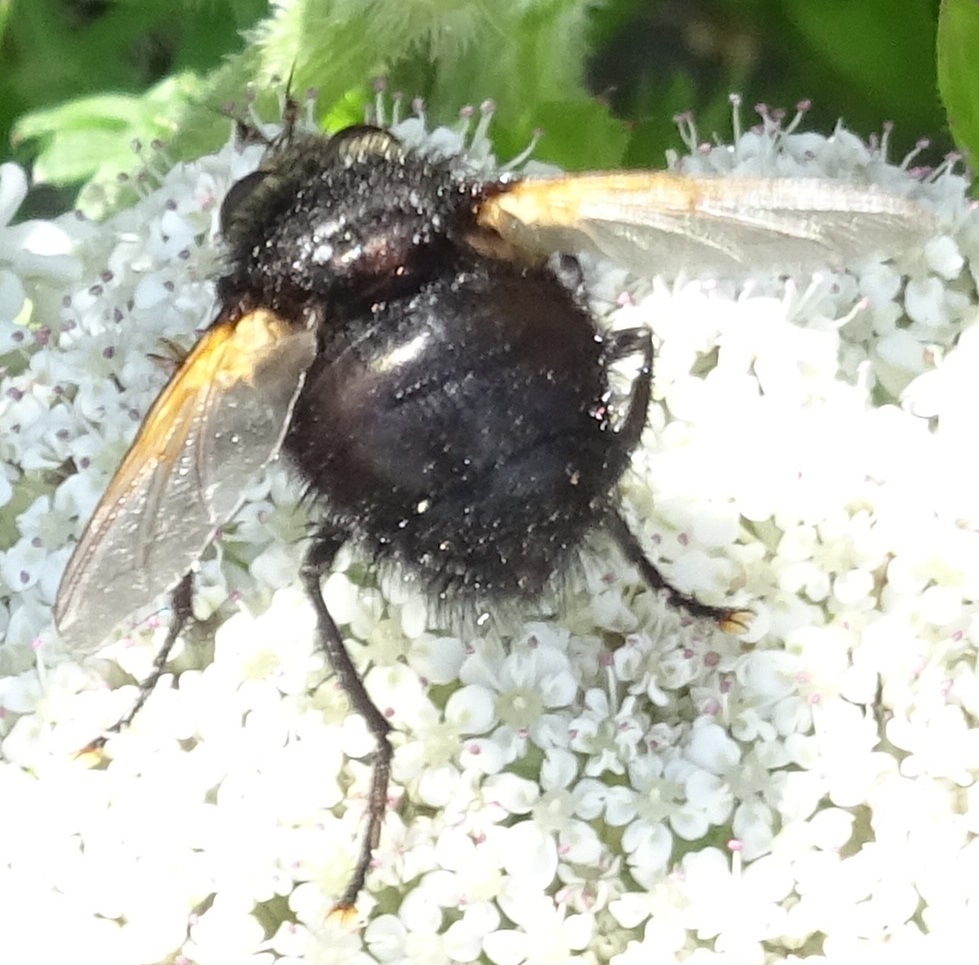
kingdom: Animalia
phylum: Arthropoda
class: Insecta
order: Diptera
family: Tachinidae
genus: Tachina
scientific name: Tachina grossa
